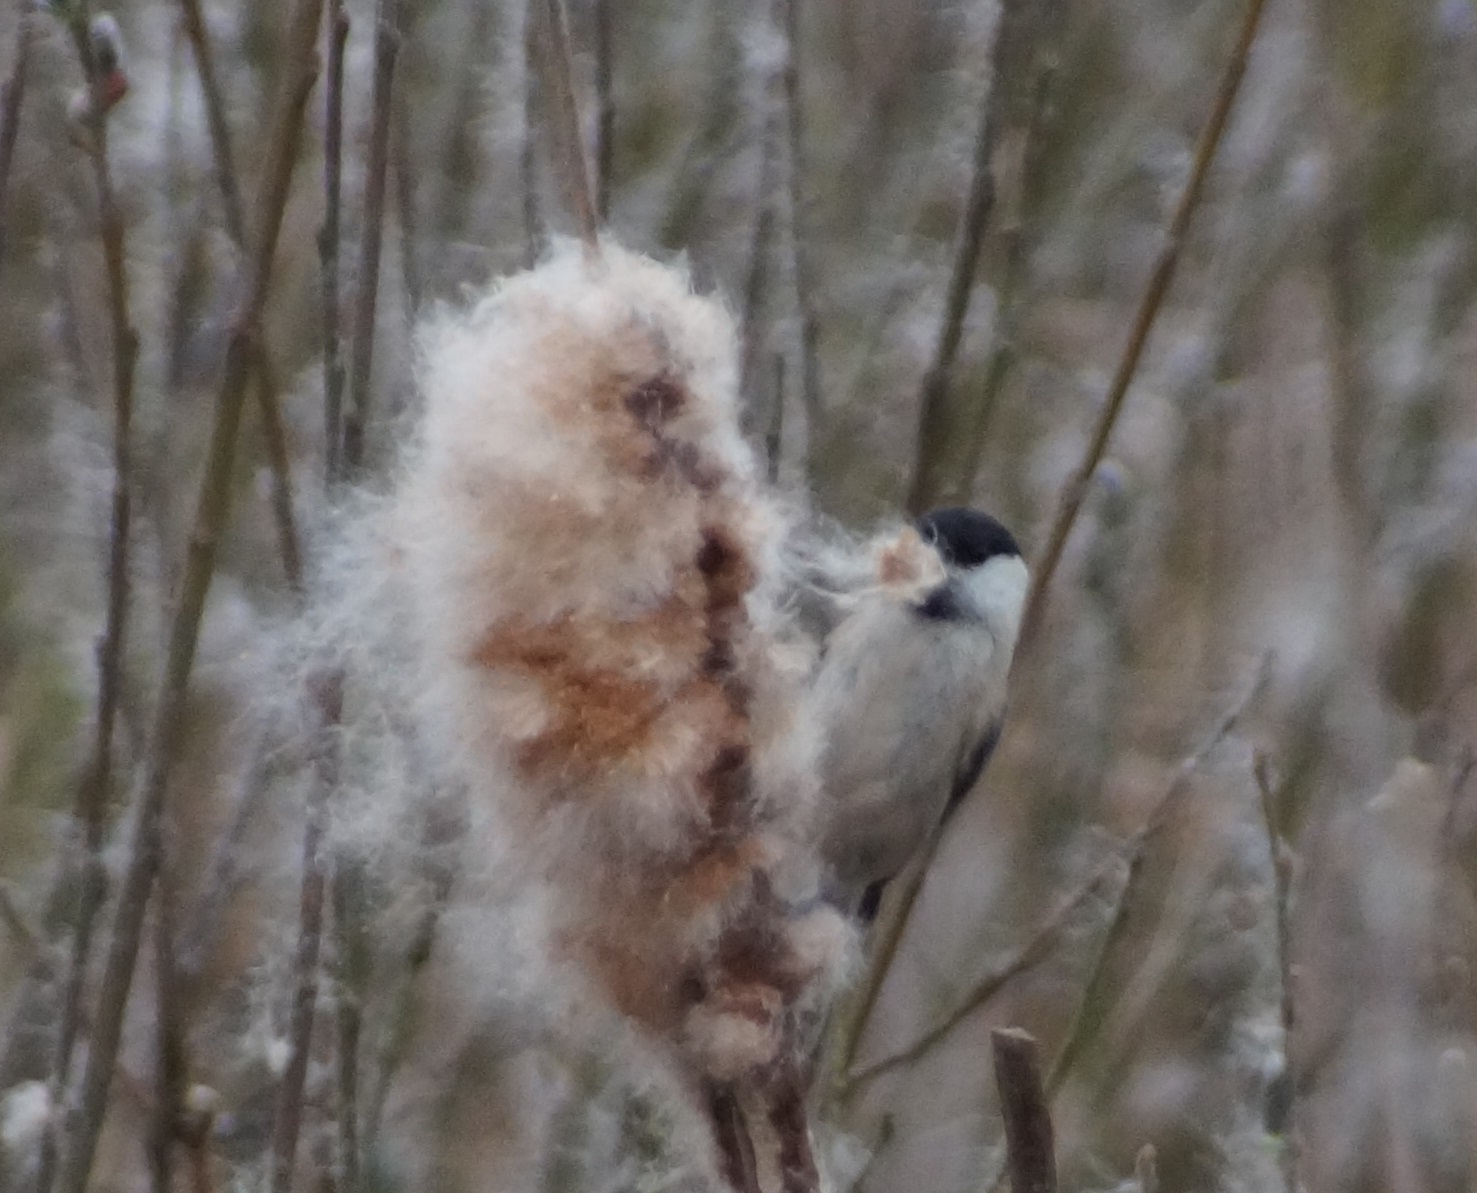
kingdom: Animalia
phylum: Chordata
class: Aves
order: Passeriformes
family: Paridae
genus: Poecile
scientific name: Poecile montanus
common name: Willow tit
